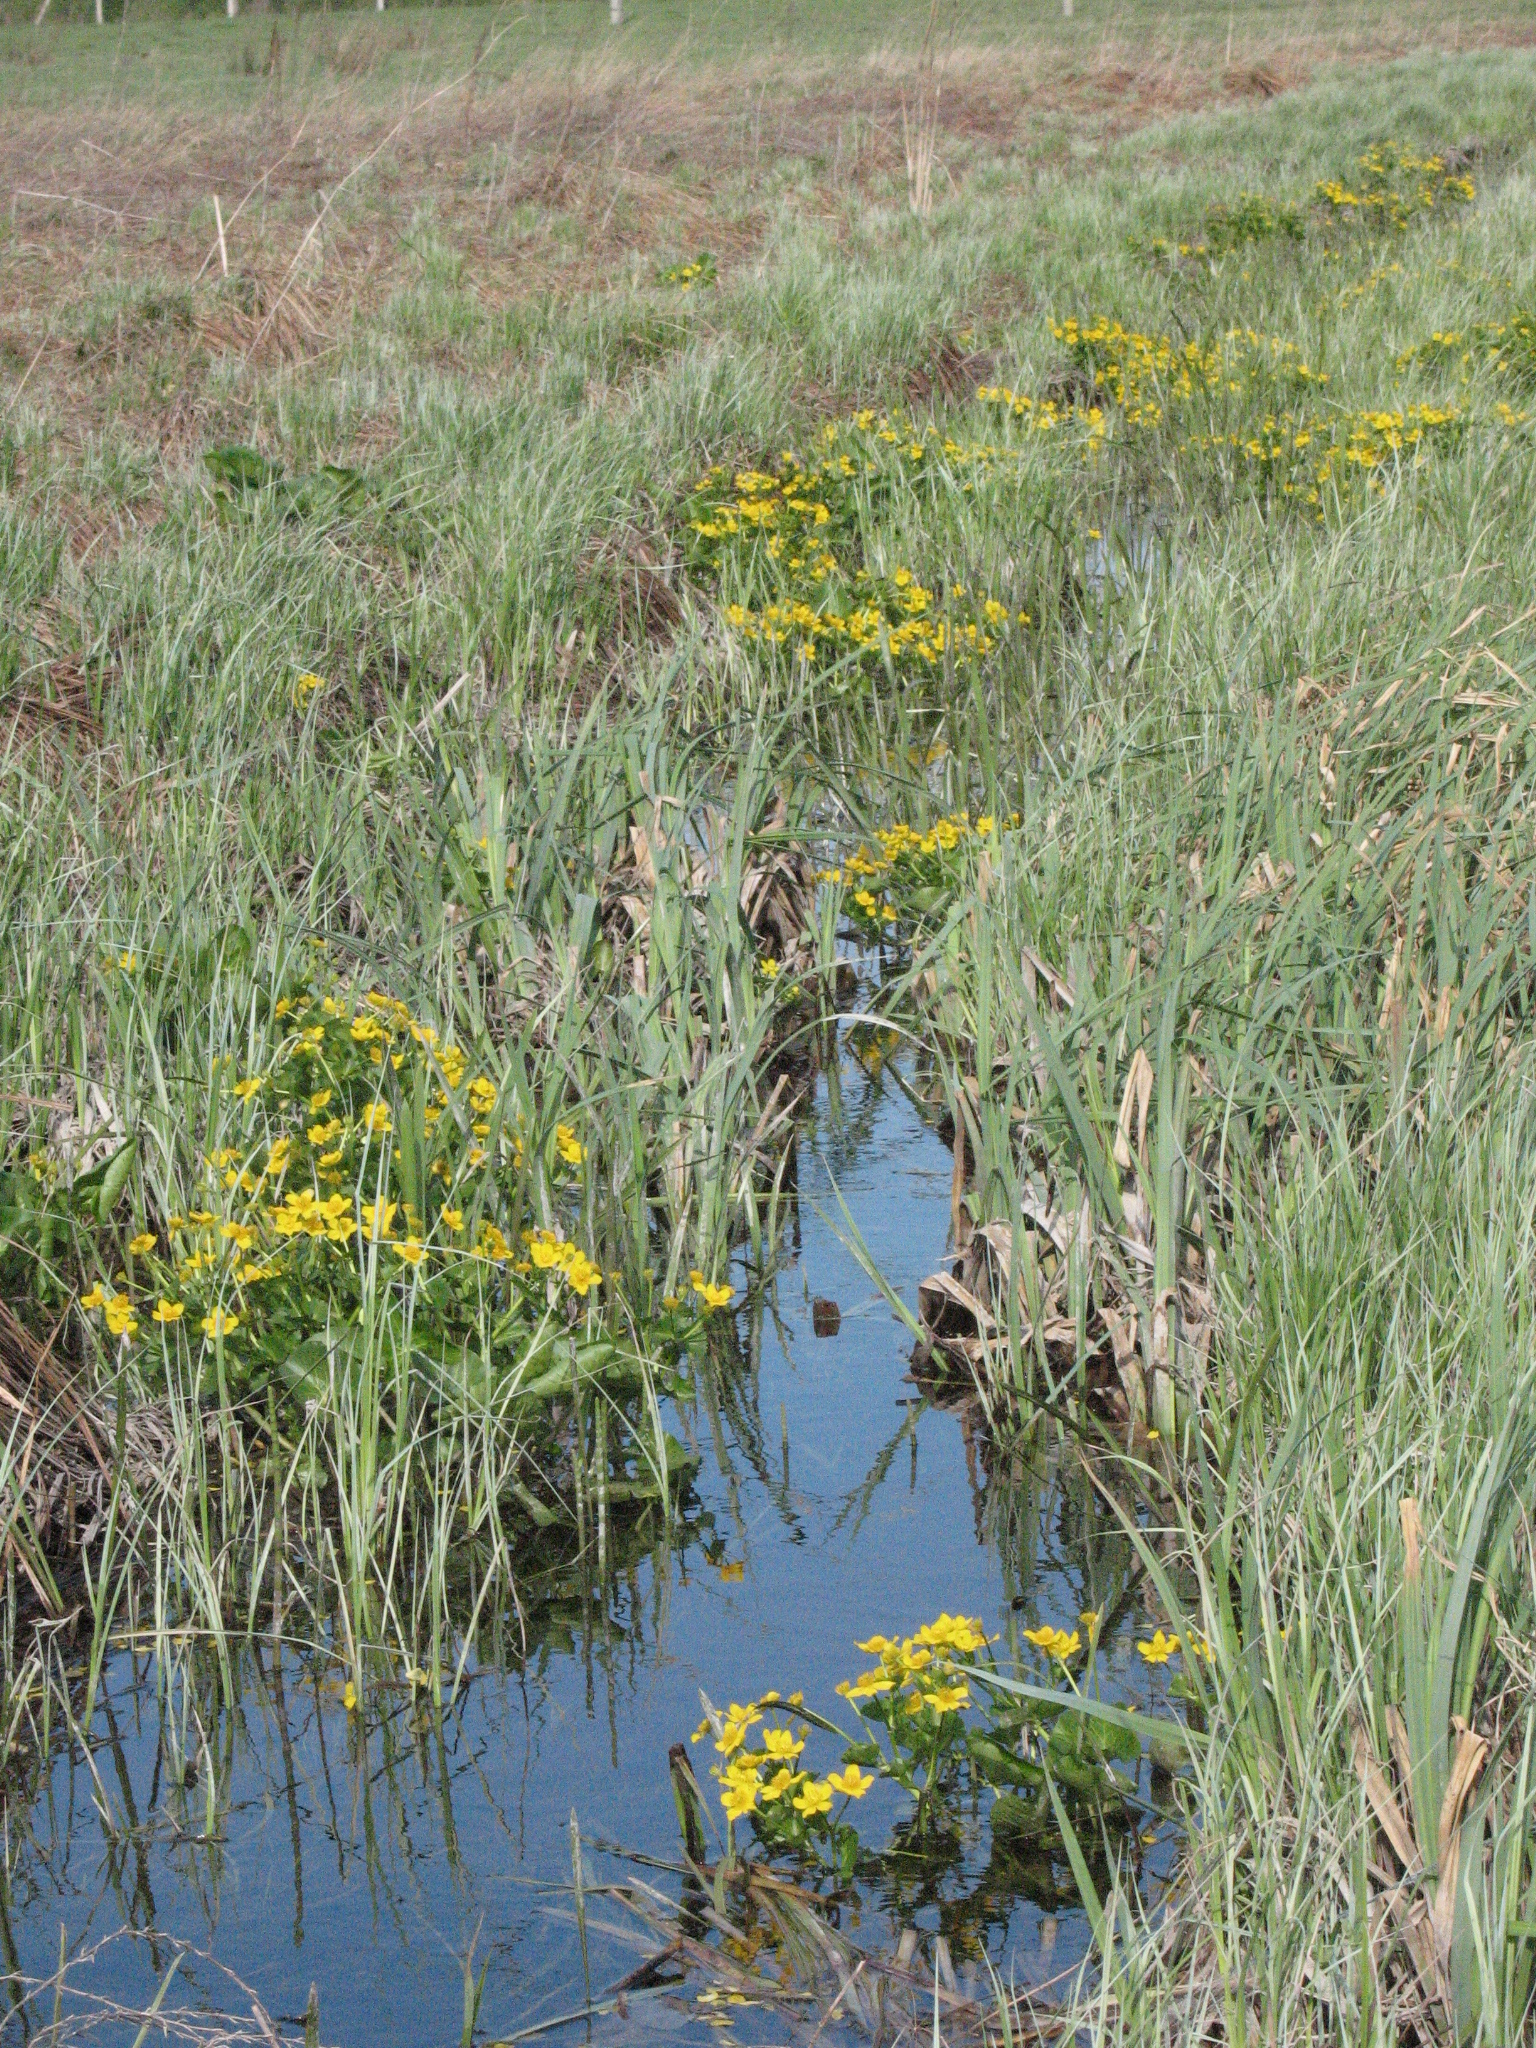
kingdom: Plantae
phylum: Tracheophyta
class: Magnoliopsida
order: Ranunculales
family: Ranunculaceae
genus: Caltha
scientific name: Caltha palustris
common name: Marsh marigold
